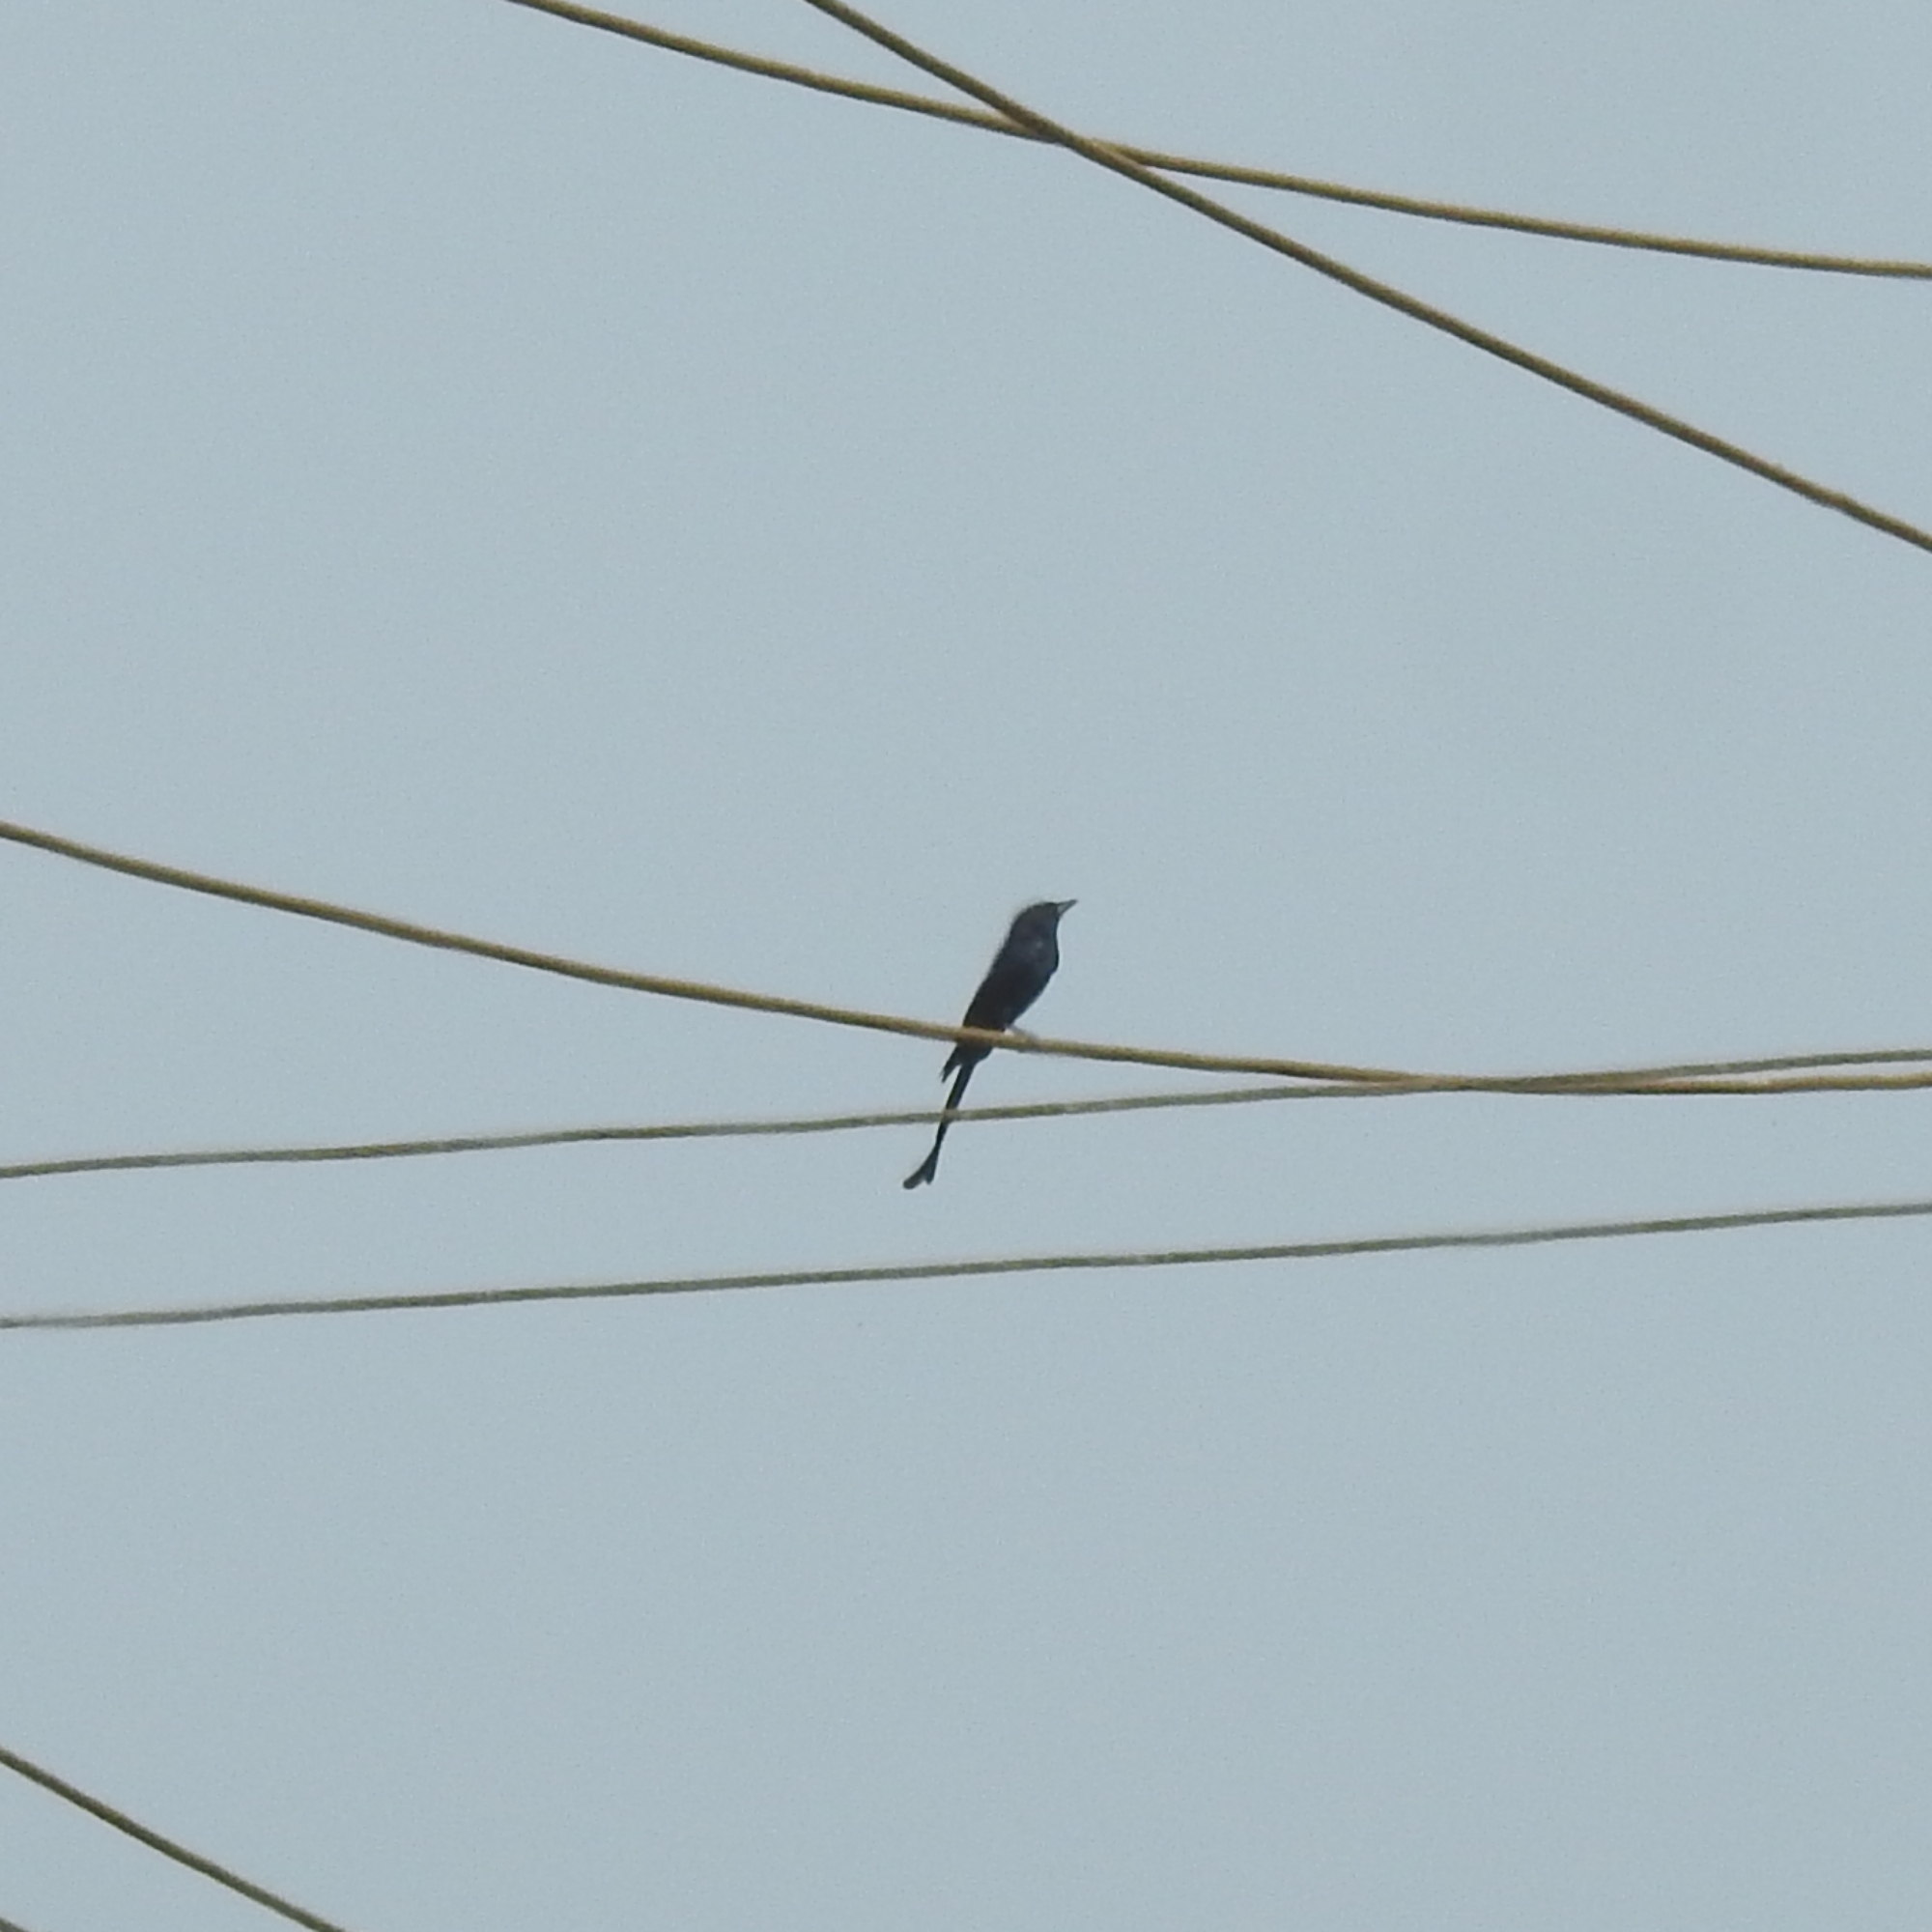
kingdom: Animalia
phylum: Chordata
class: Aves
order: Passeriformes
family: Dicruridae
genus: Dicrurus
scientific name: Dicrurus macrocercus
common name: Black drongo
